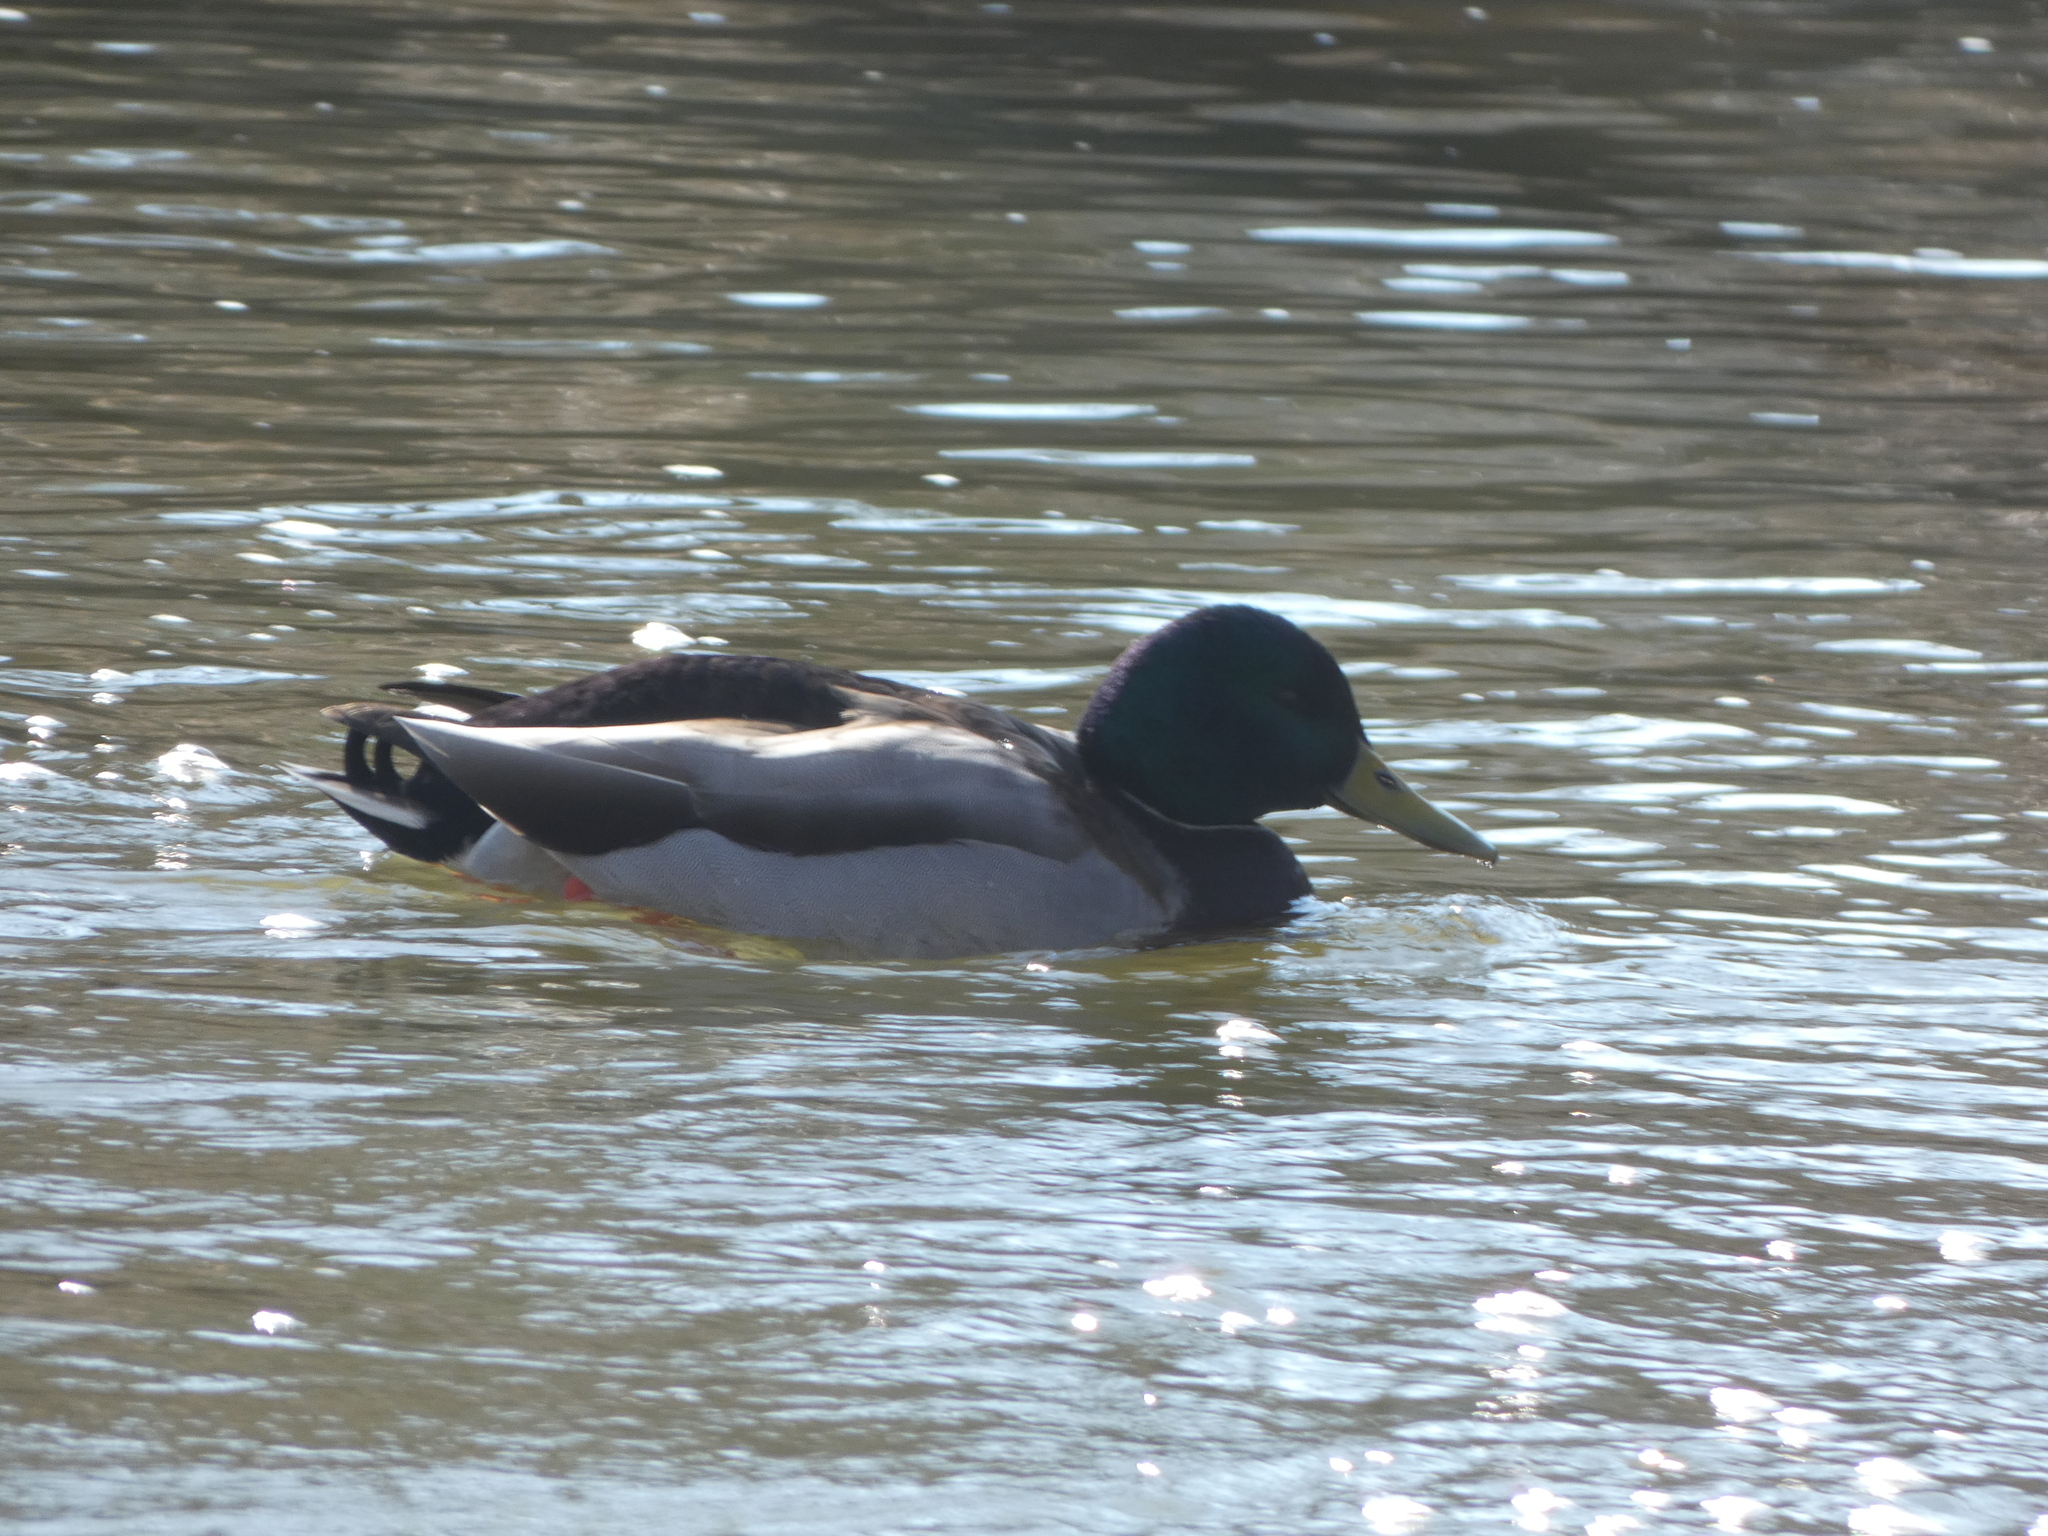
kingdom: Animalia
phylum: Chordata
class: Aves
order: Anseriformes
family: Anatidae
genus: Anas
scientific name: Anas platyrhynchos
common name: Mallard
